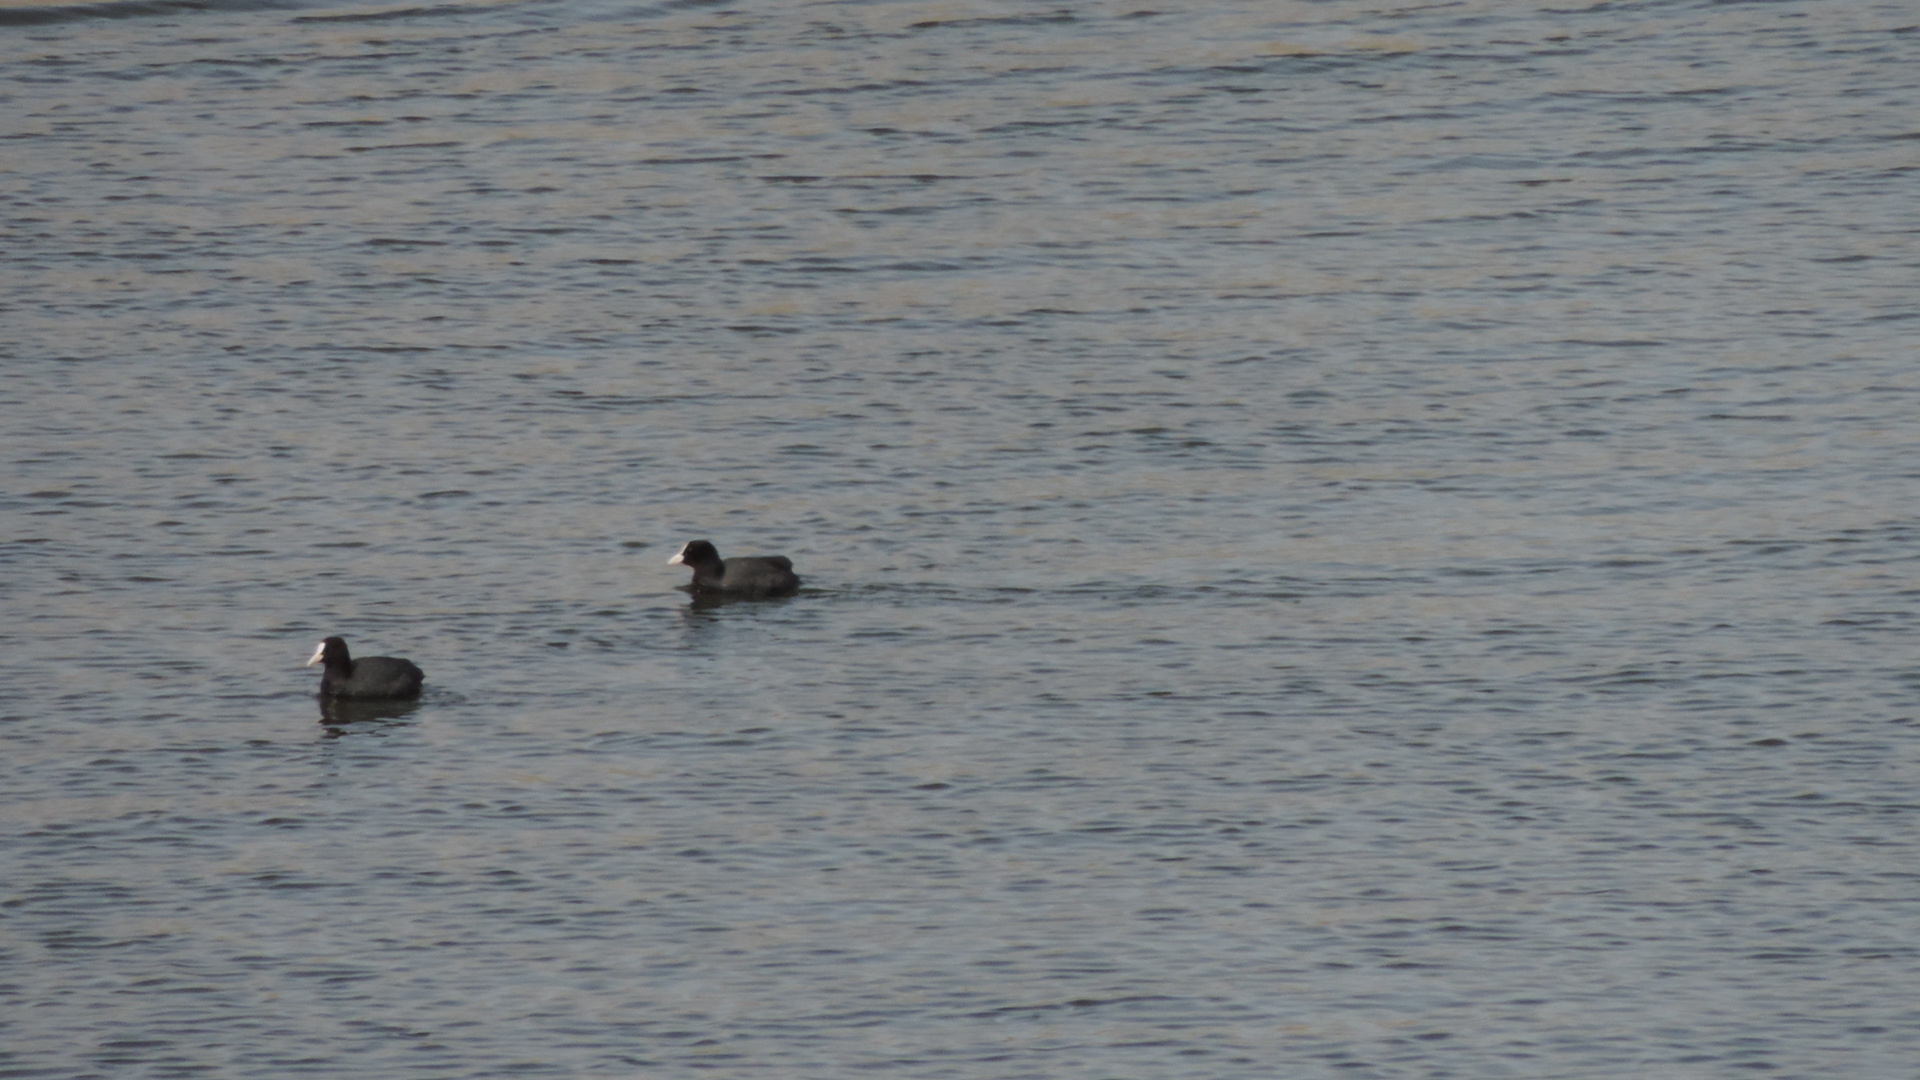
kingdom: Animalia
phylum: Chordata
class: Aves
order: Gruiformes
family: Rallidae
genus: Fulica
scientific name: Fulica atra
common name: Eurasian coot
